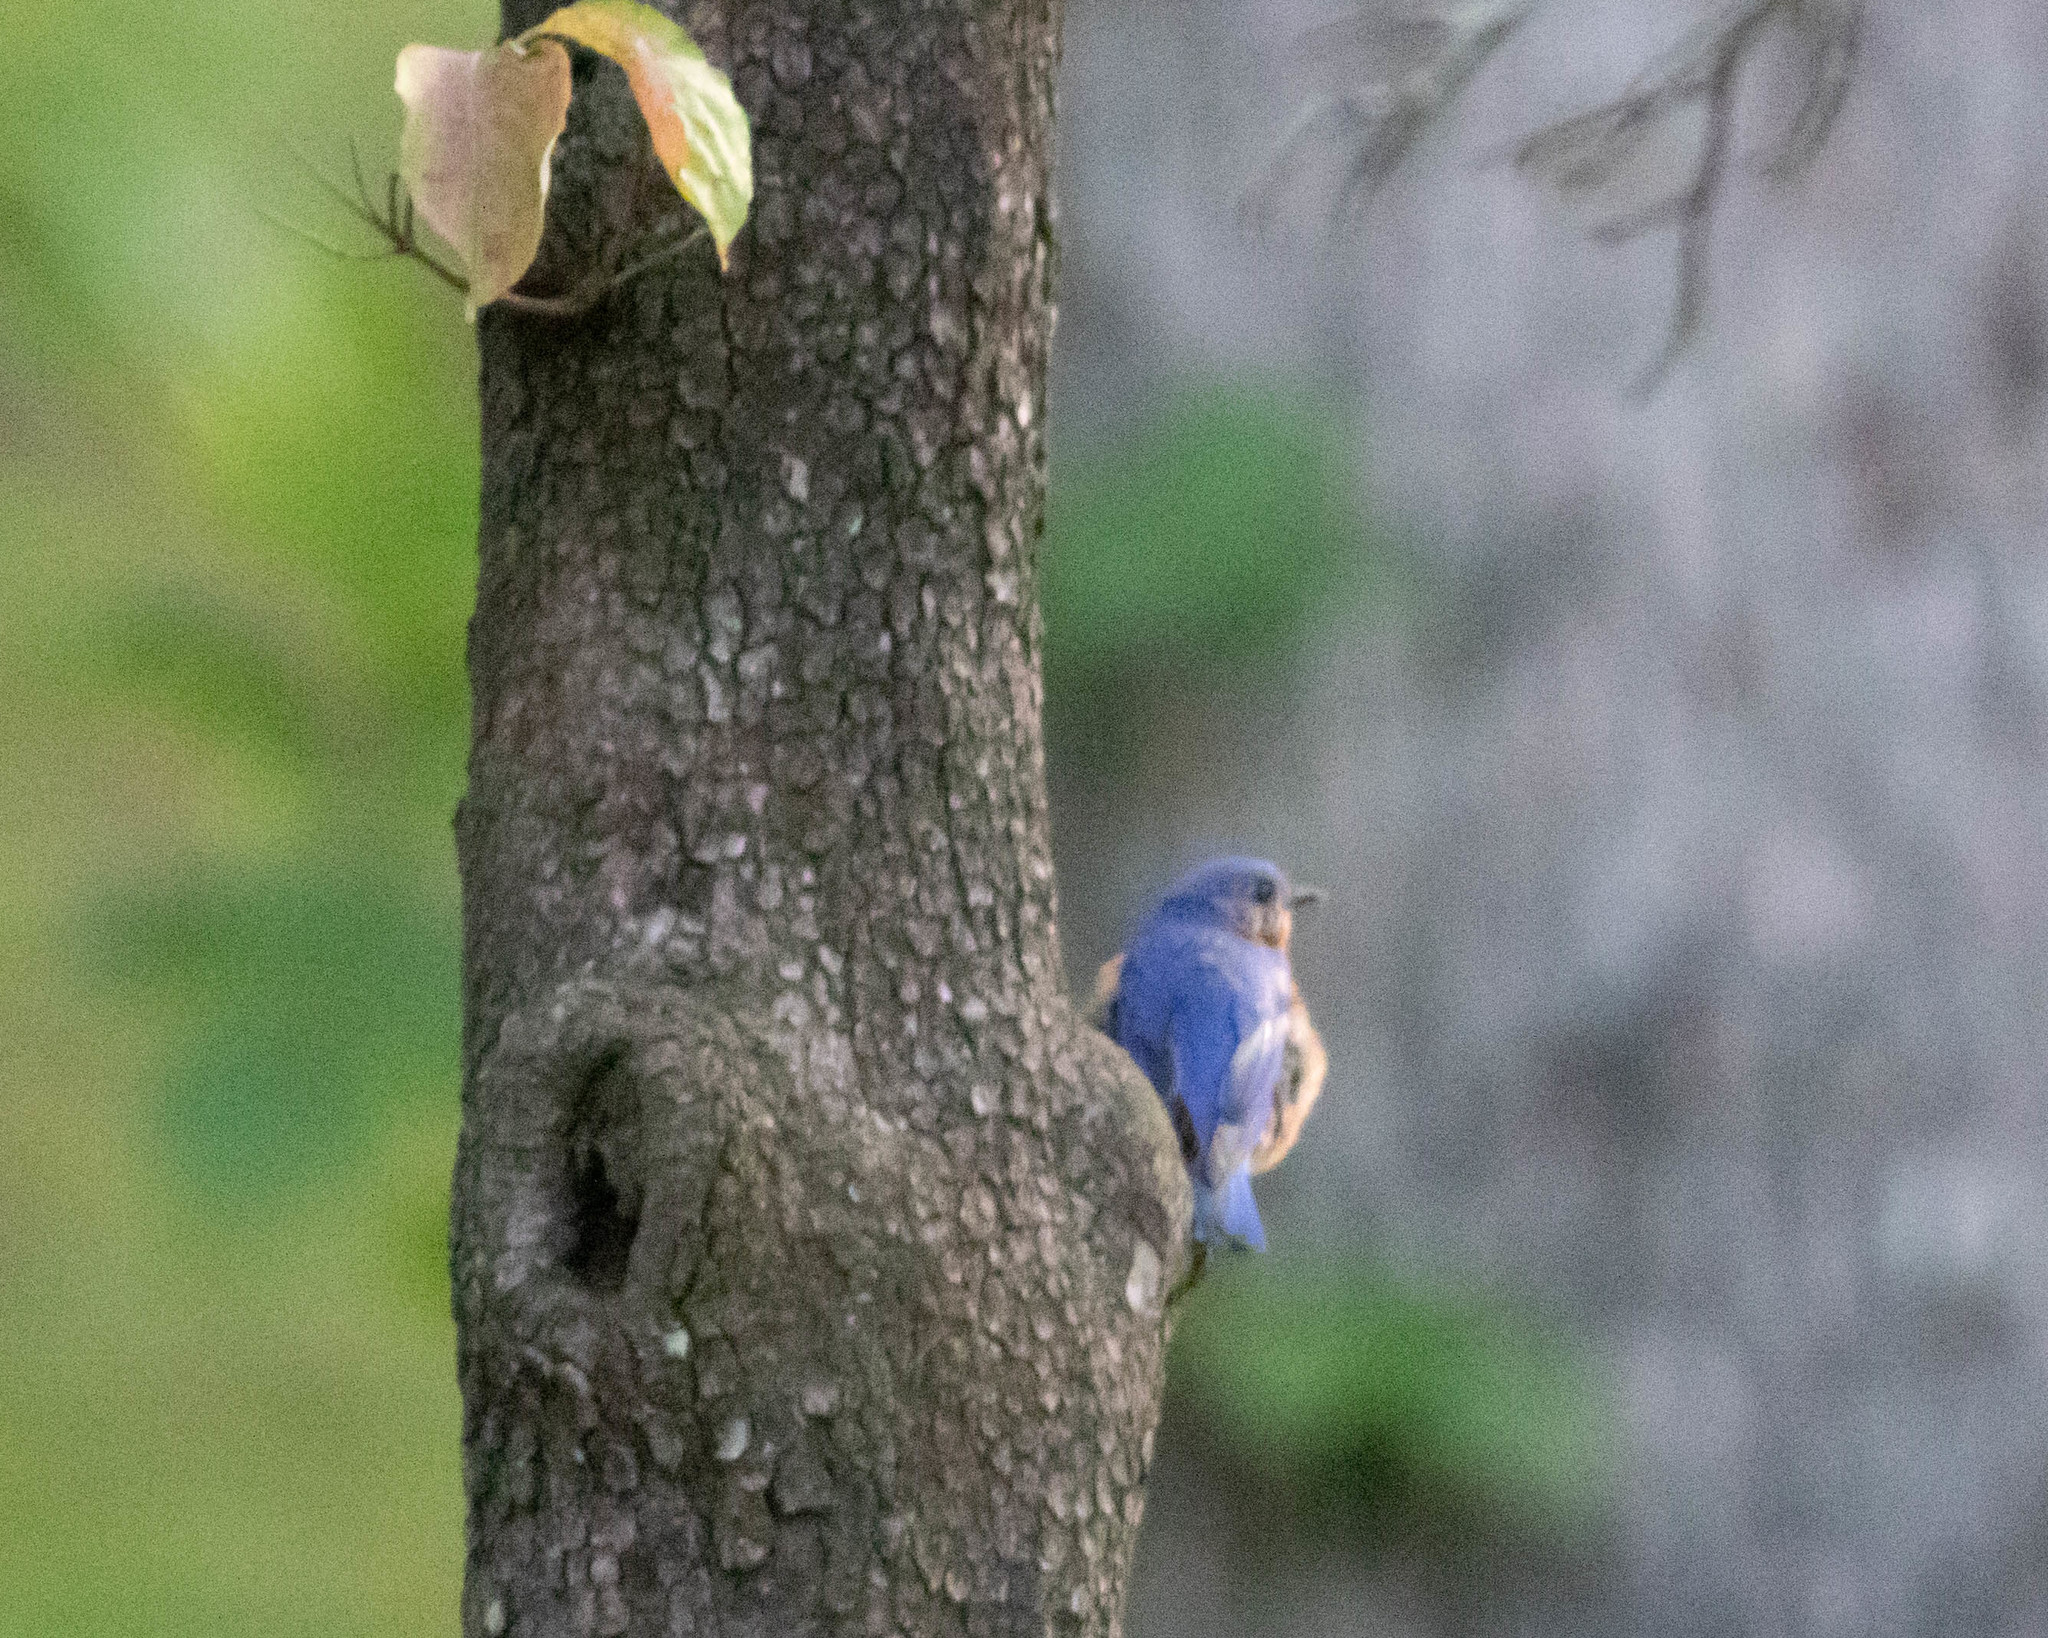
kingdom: Animalia
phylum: Chordata
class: Aves
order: Passeriformes
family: Turdidae
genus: Sialia
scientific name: Sialia sialis
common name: Eastern bluebird
